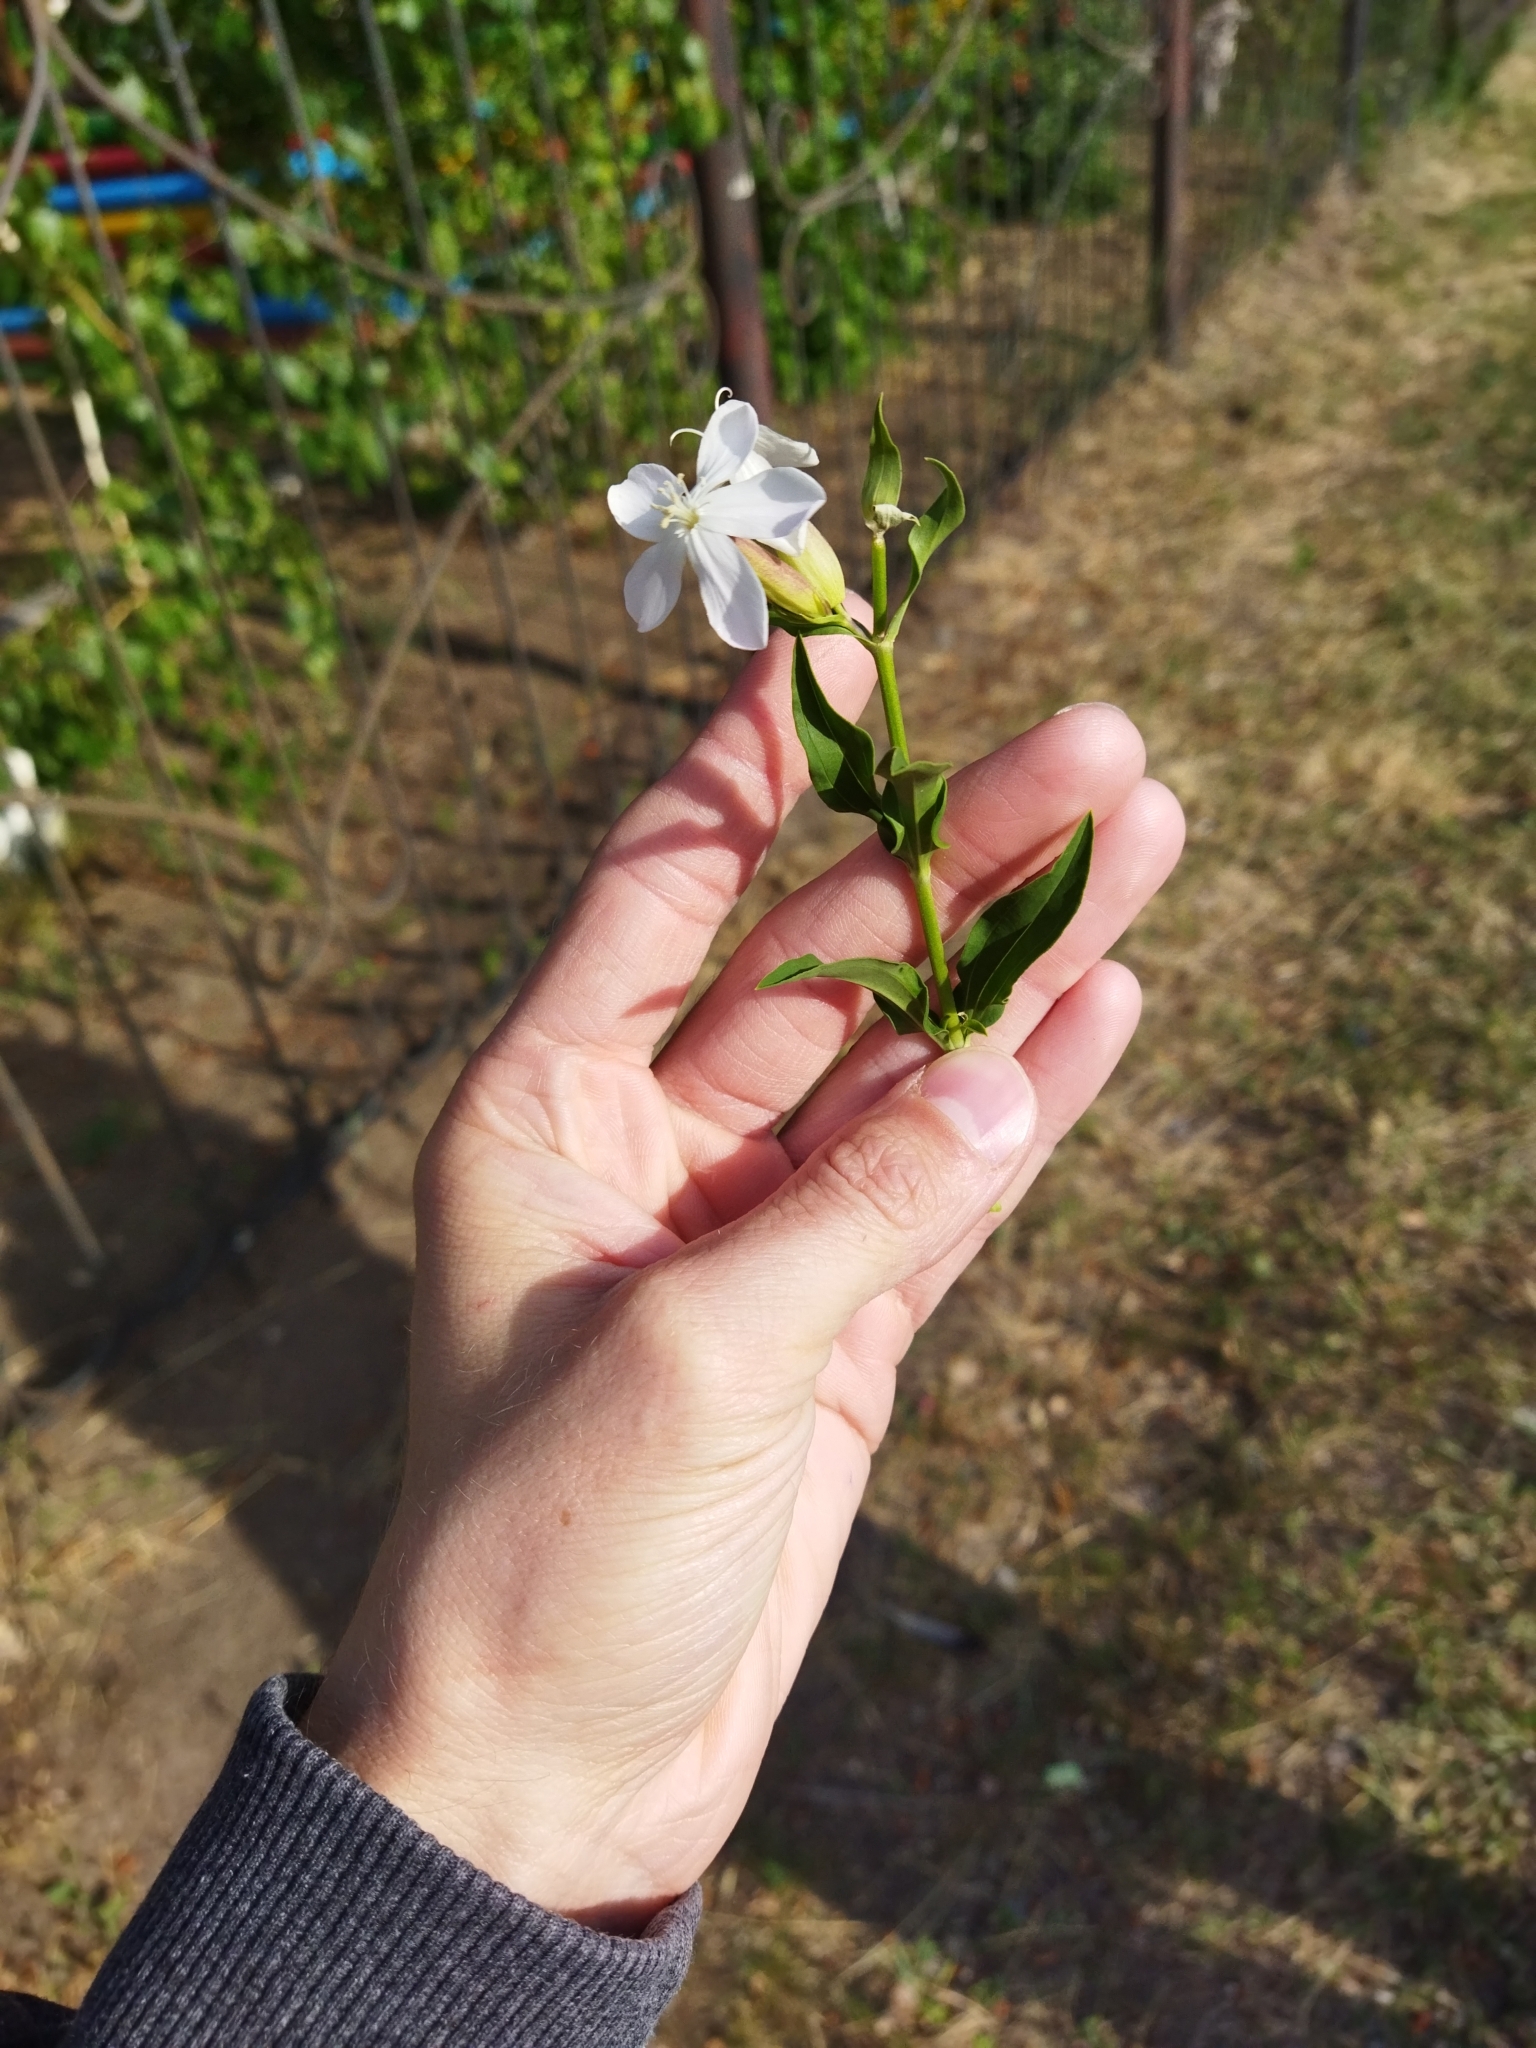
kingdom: Plantae
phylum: Tracheophyta
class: Magnoliopsida
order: Caryophyllales
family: Caryophyllaceae
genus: Saponaria
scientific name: Saponaria officinalis
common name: Soapwort
